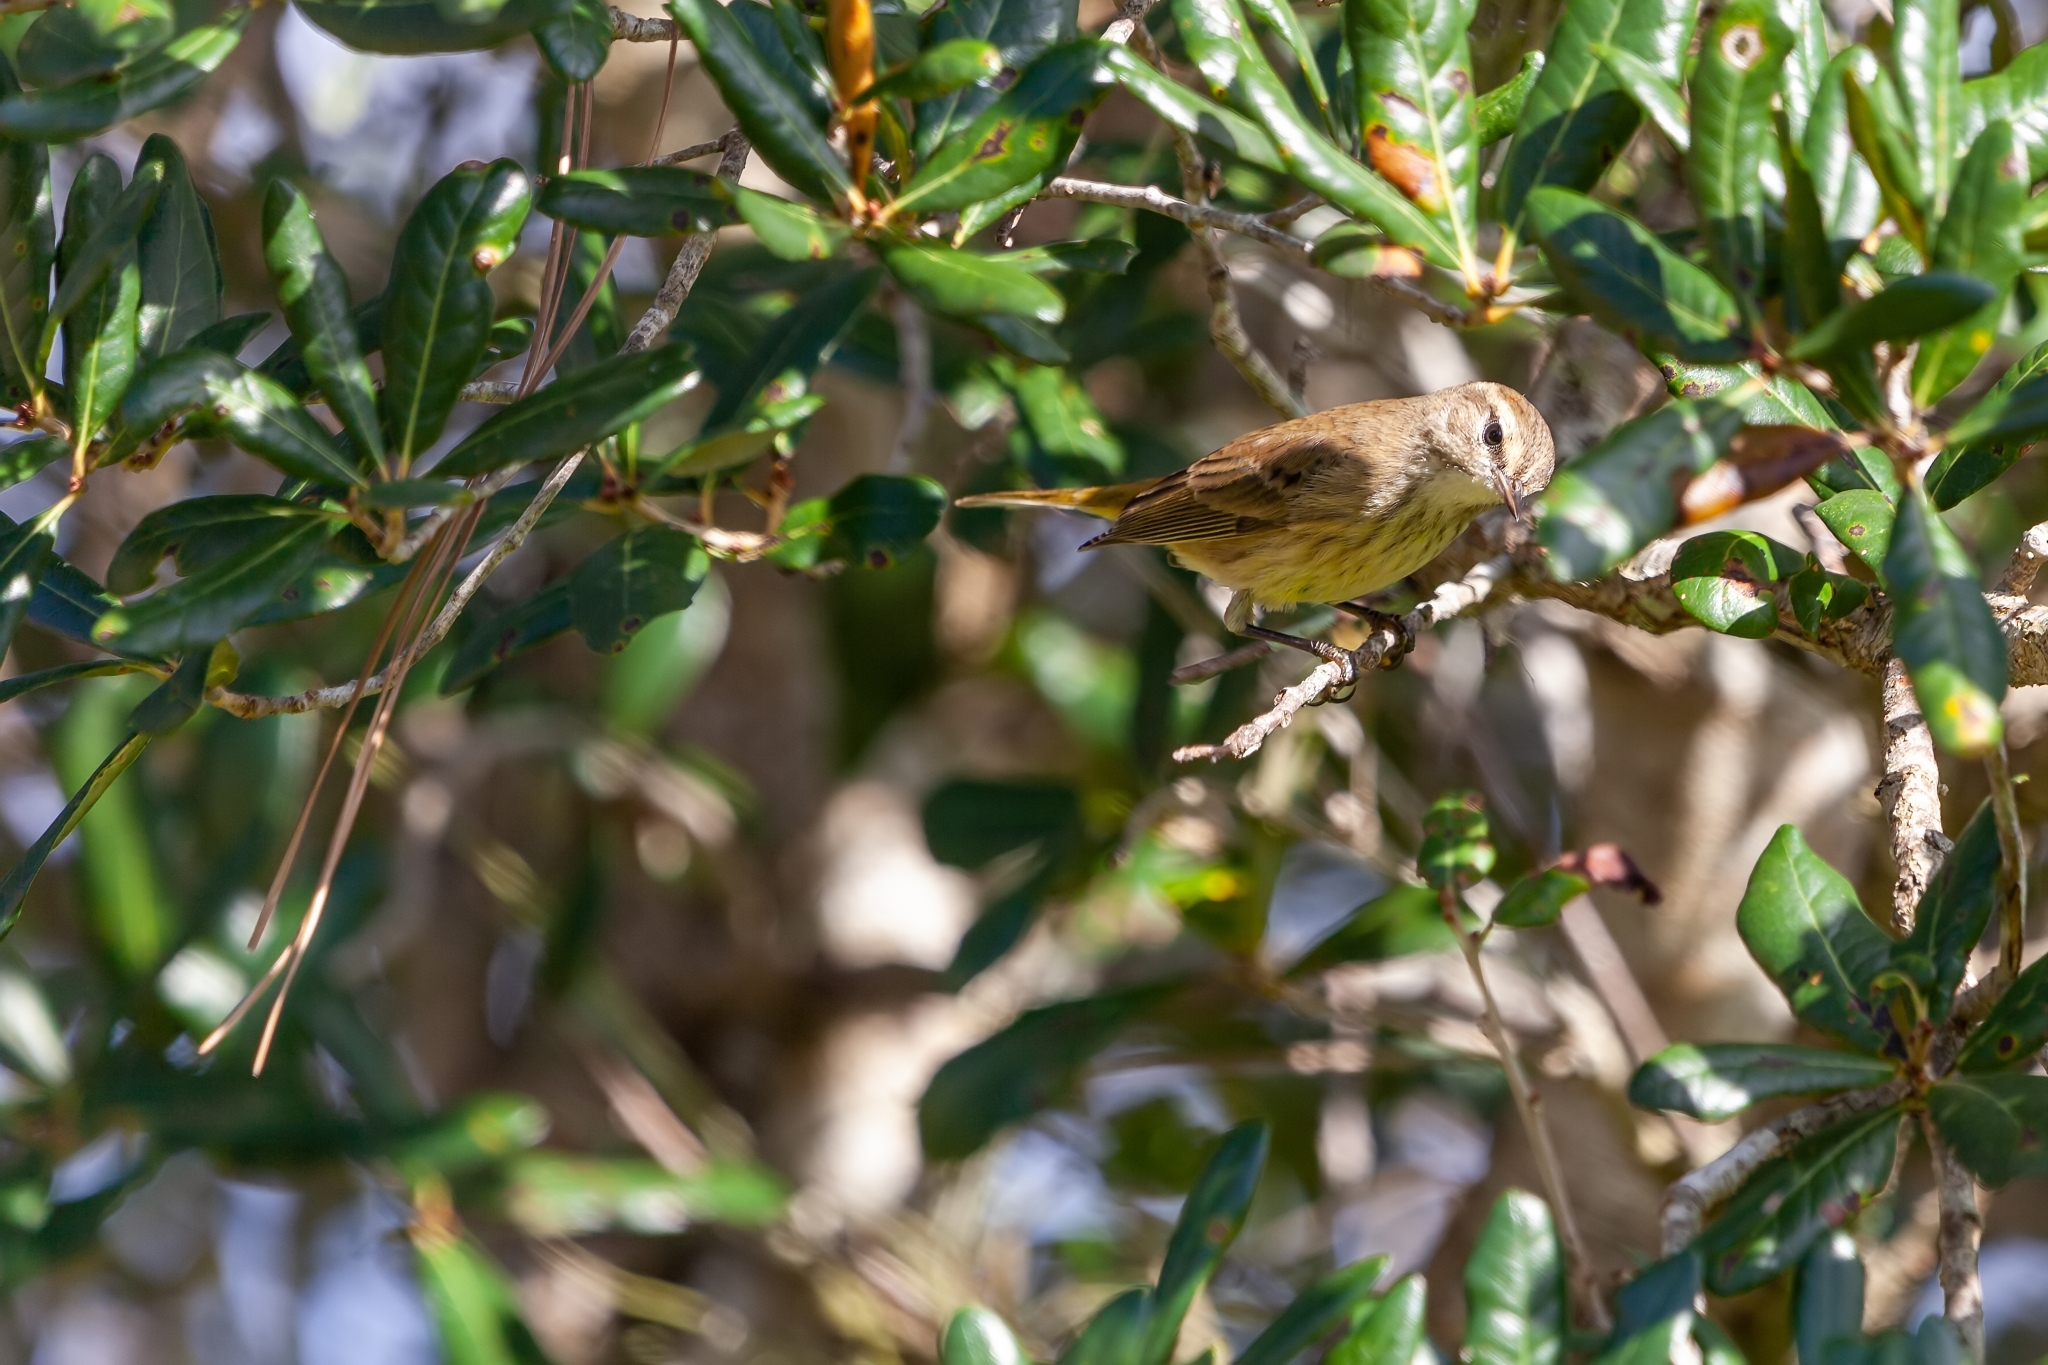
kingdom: Animalia
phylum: Chordata
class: Aves
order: Passeriformes
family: Parulidae
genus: Setophaga
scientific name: Setophaga palmarum
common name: Palm warbler
